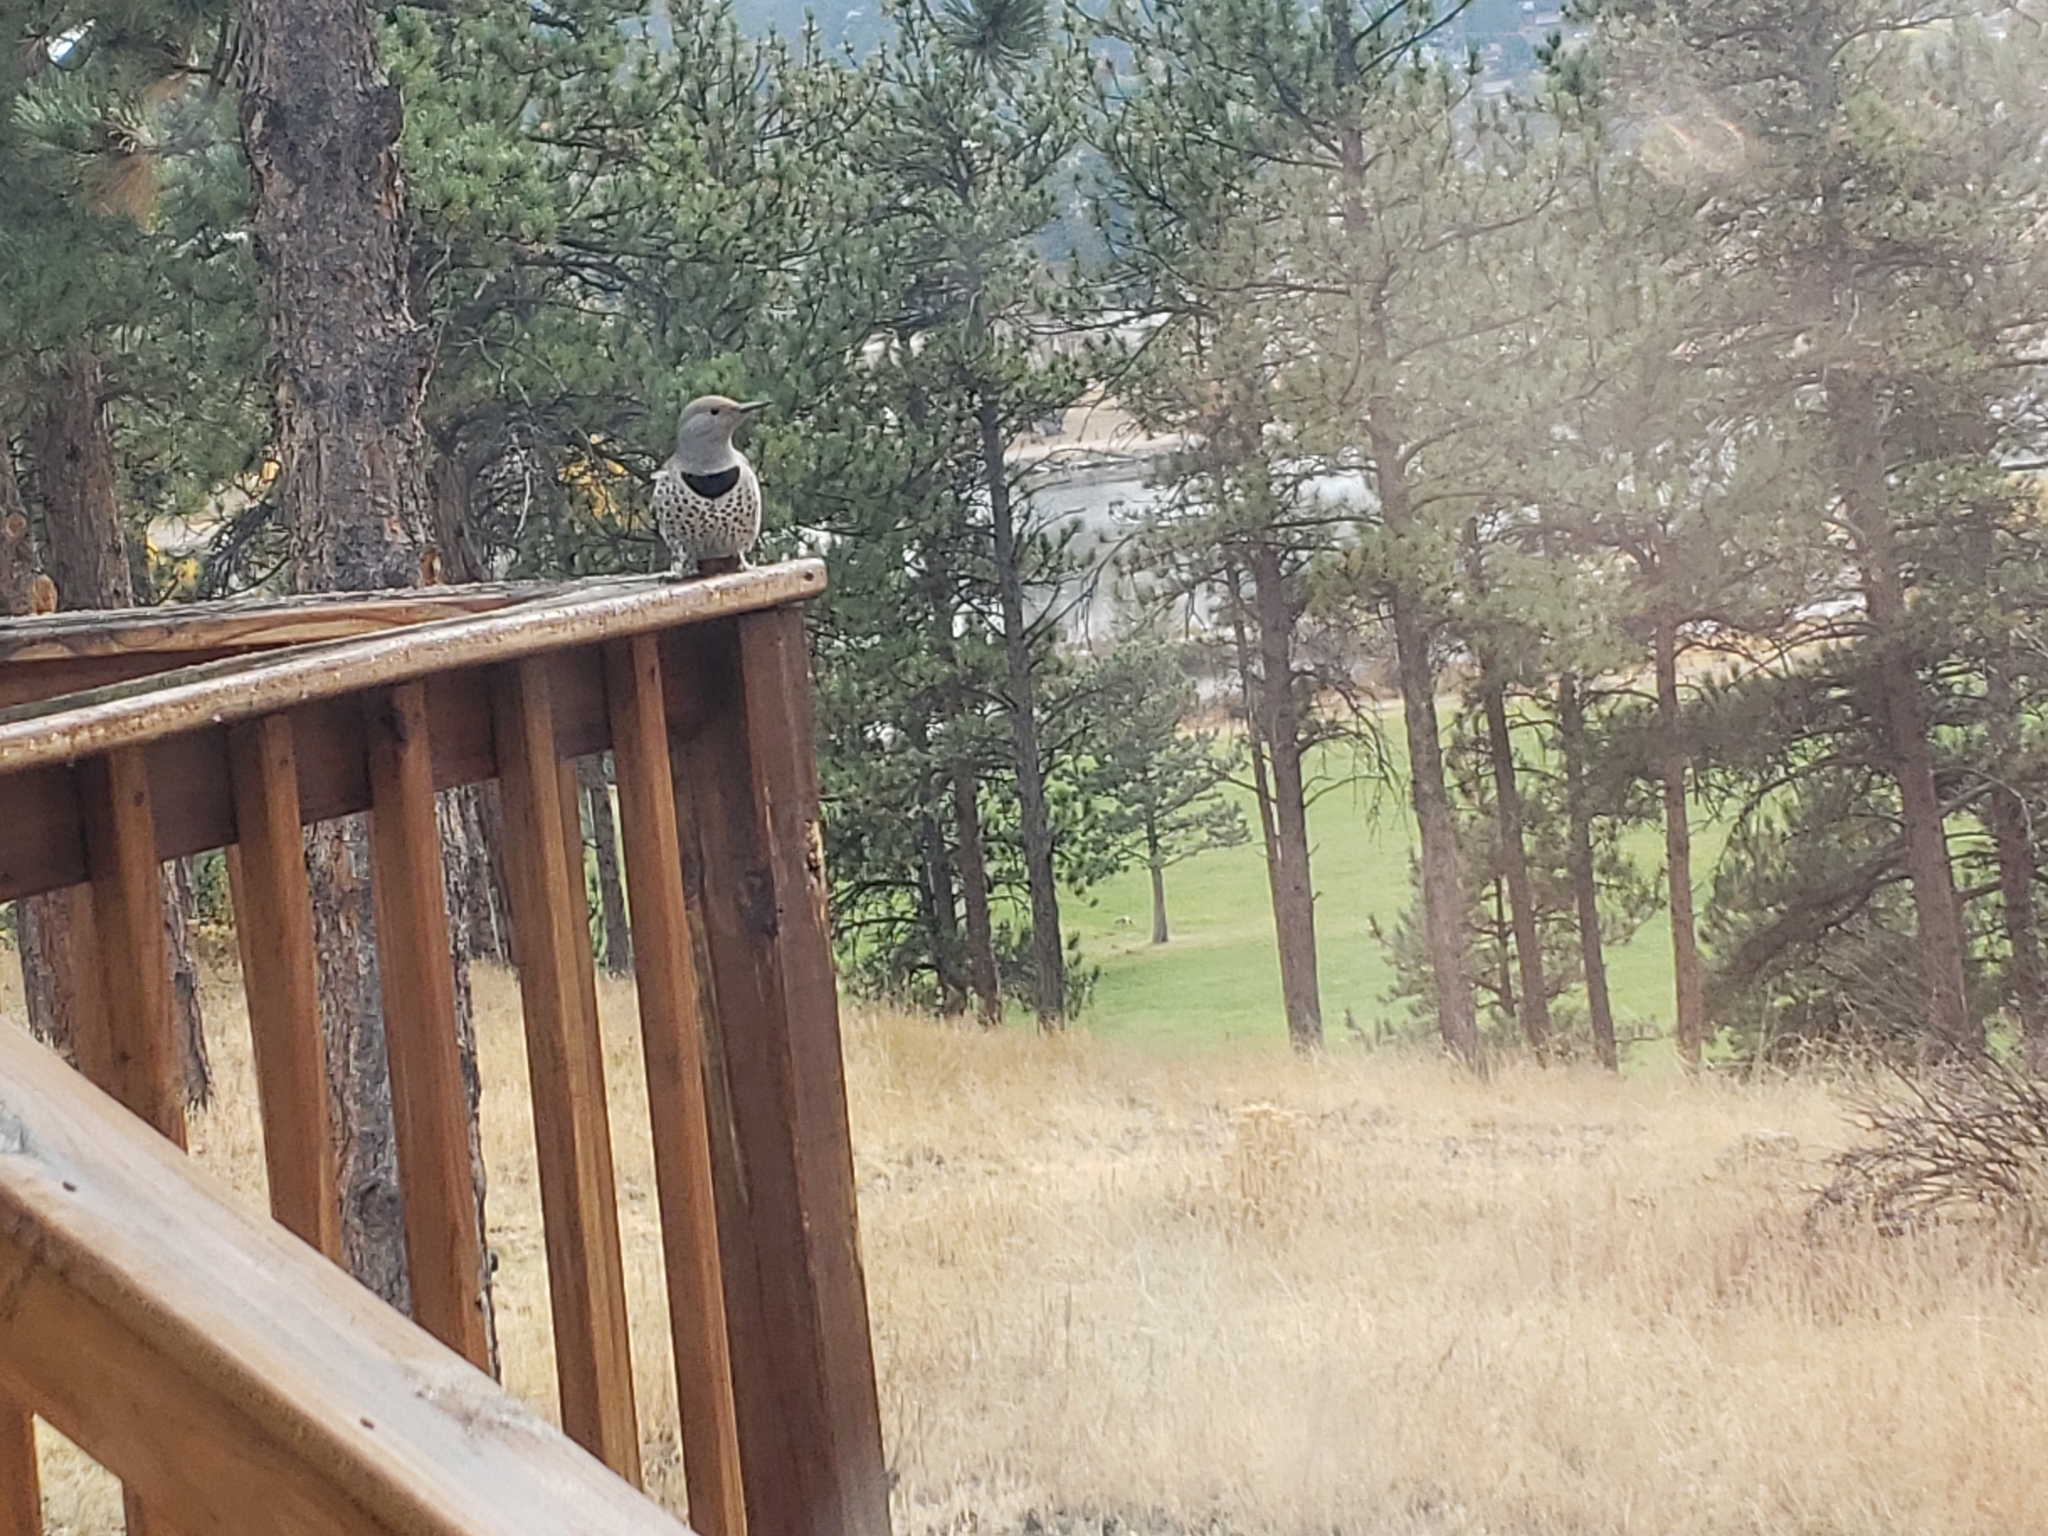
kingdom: Animalia
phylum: Chordata
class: Aves
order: Piciformes
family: Picidae
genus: Colaptes
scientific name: Colaptes auratus
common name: Northern flicker
